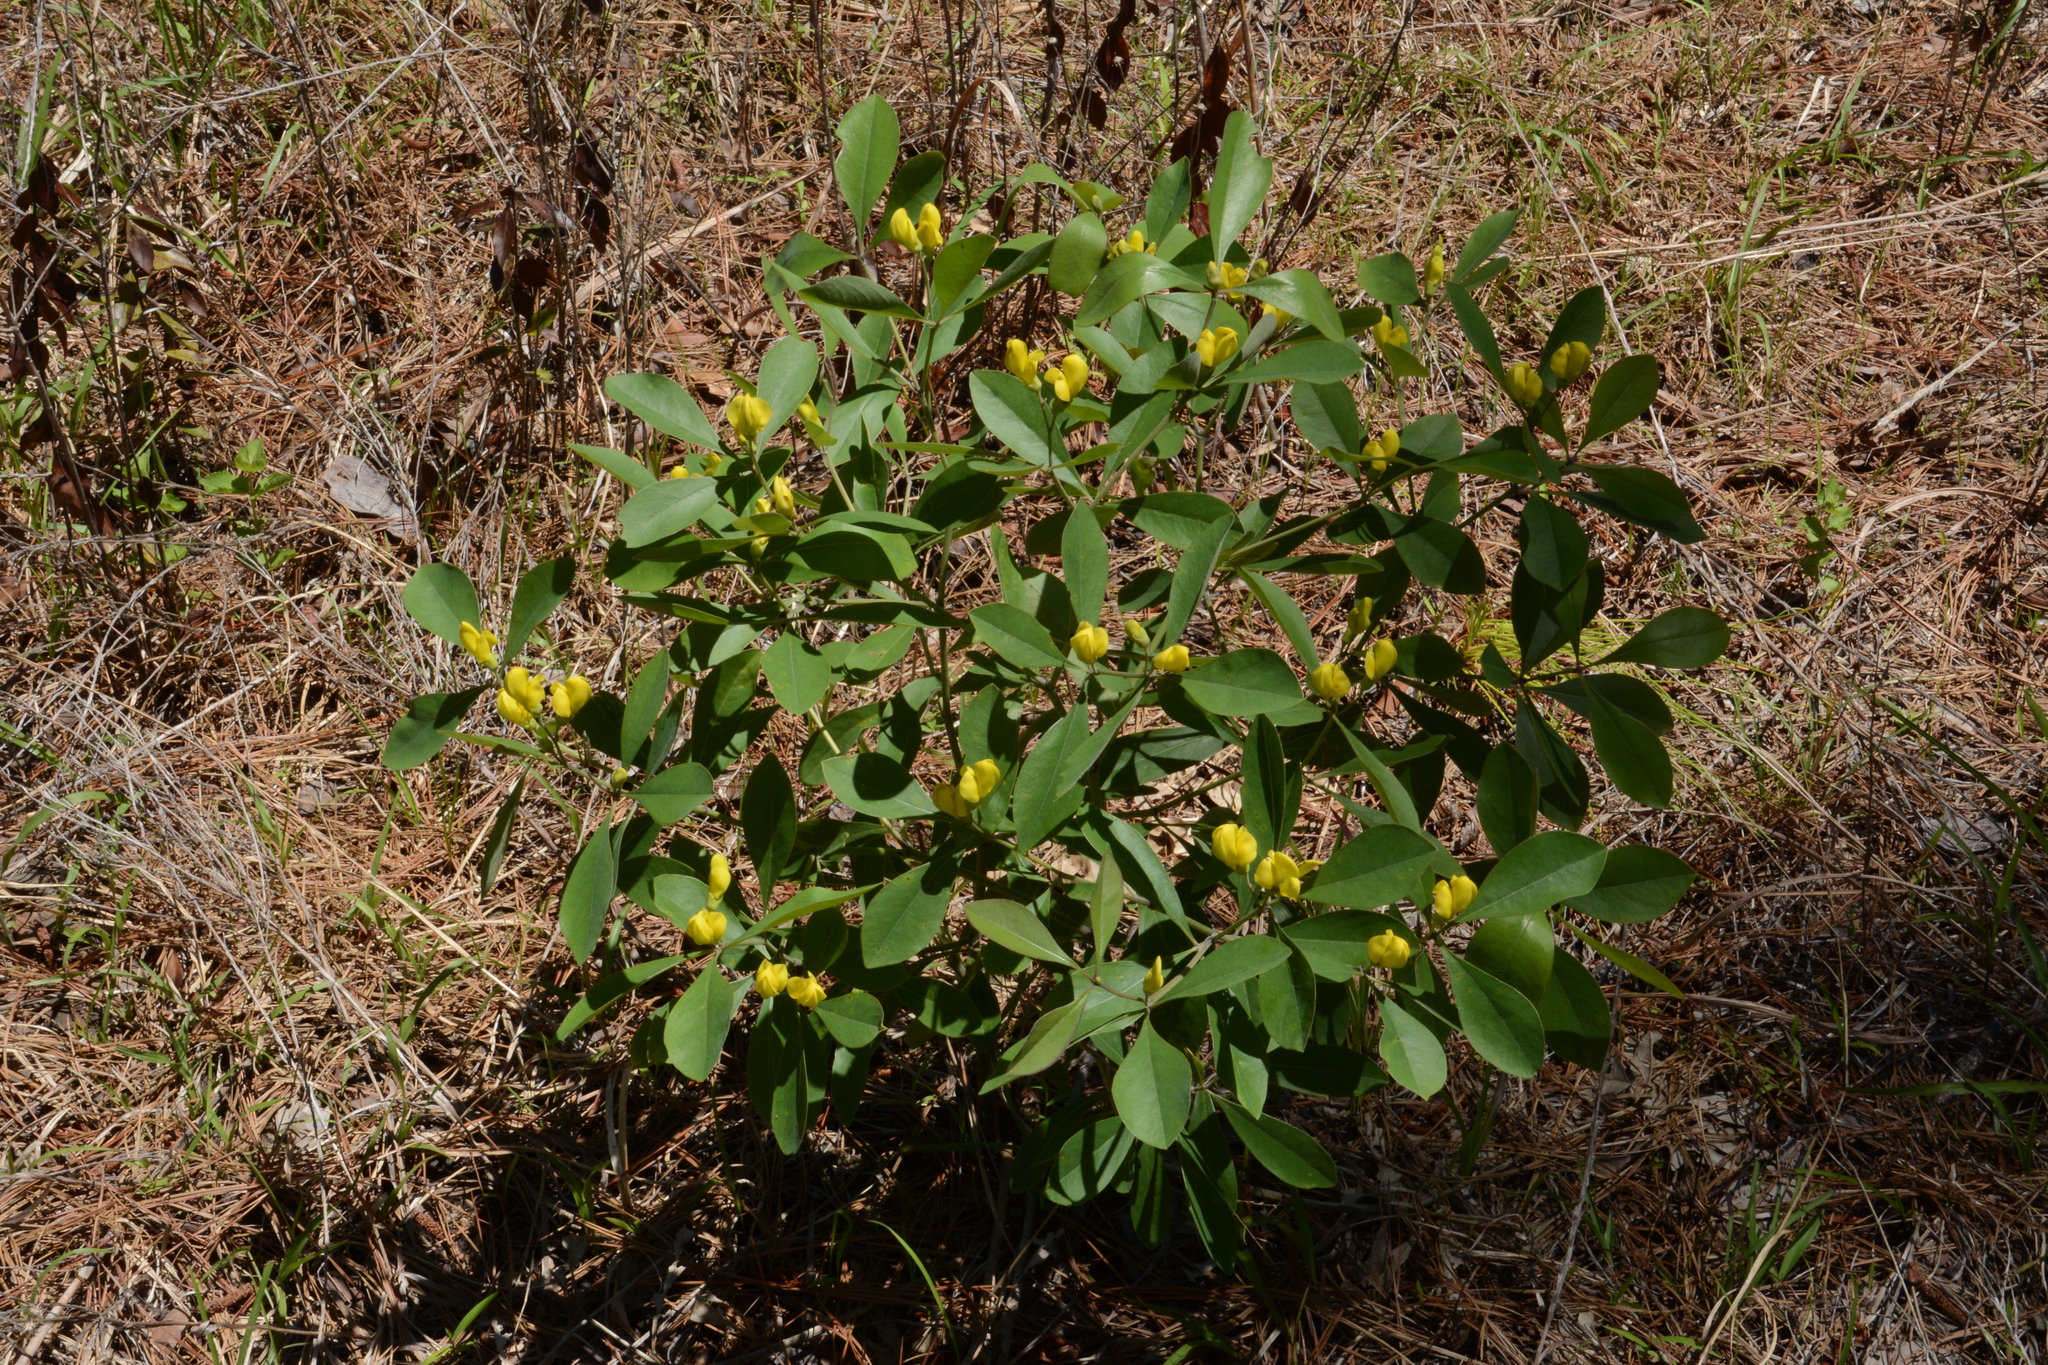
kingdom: Plantae
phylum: Tracheophyta
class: Magnoliopsida
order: Fabales
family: Fabaceae
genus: Baptisia
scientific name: Baptisia lanceolata
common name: Gopherweed
